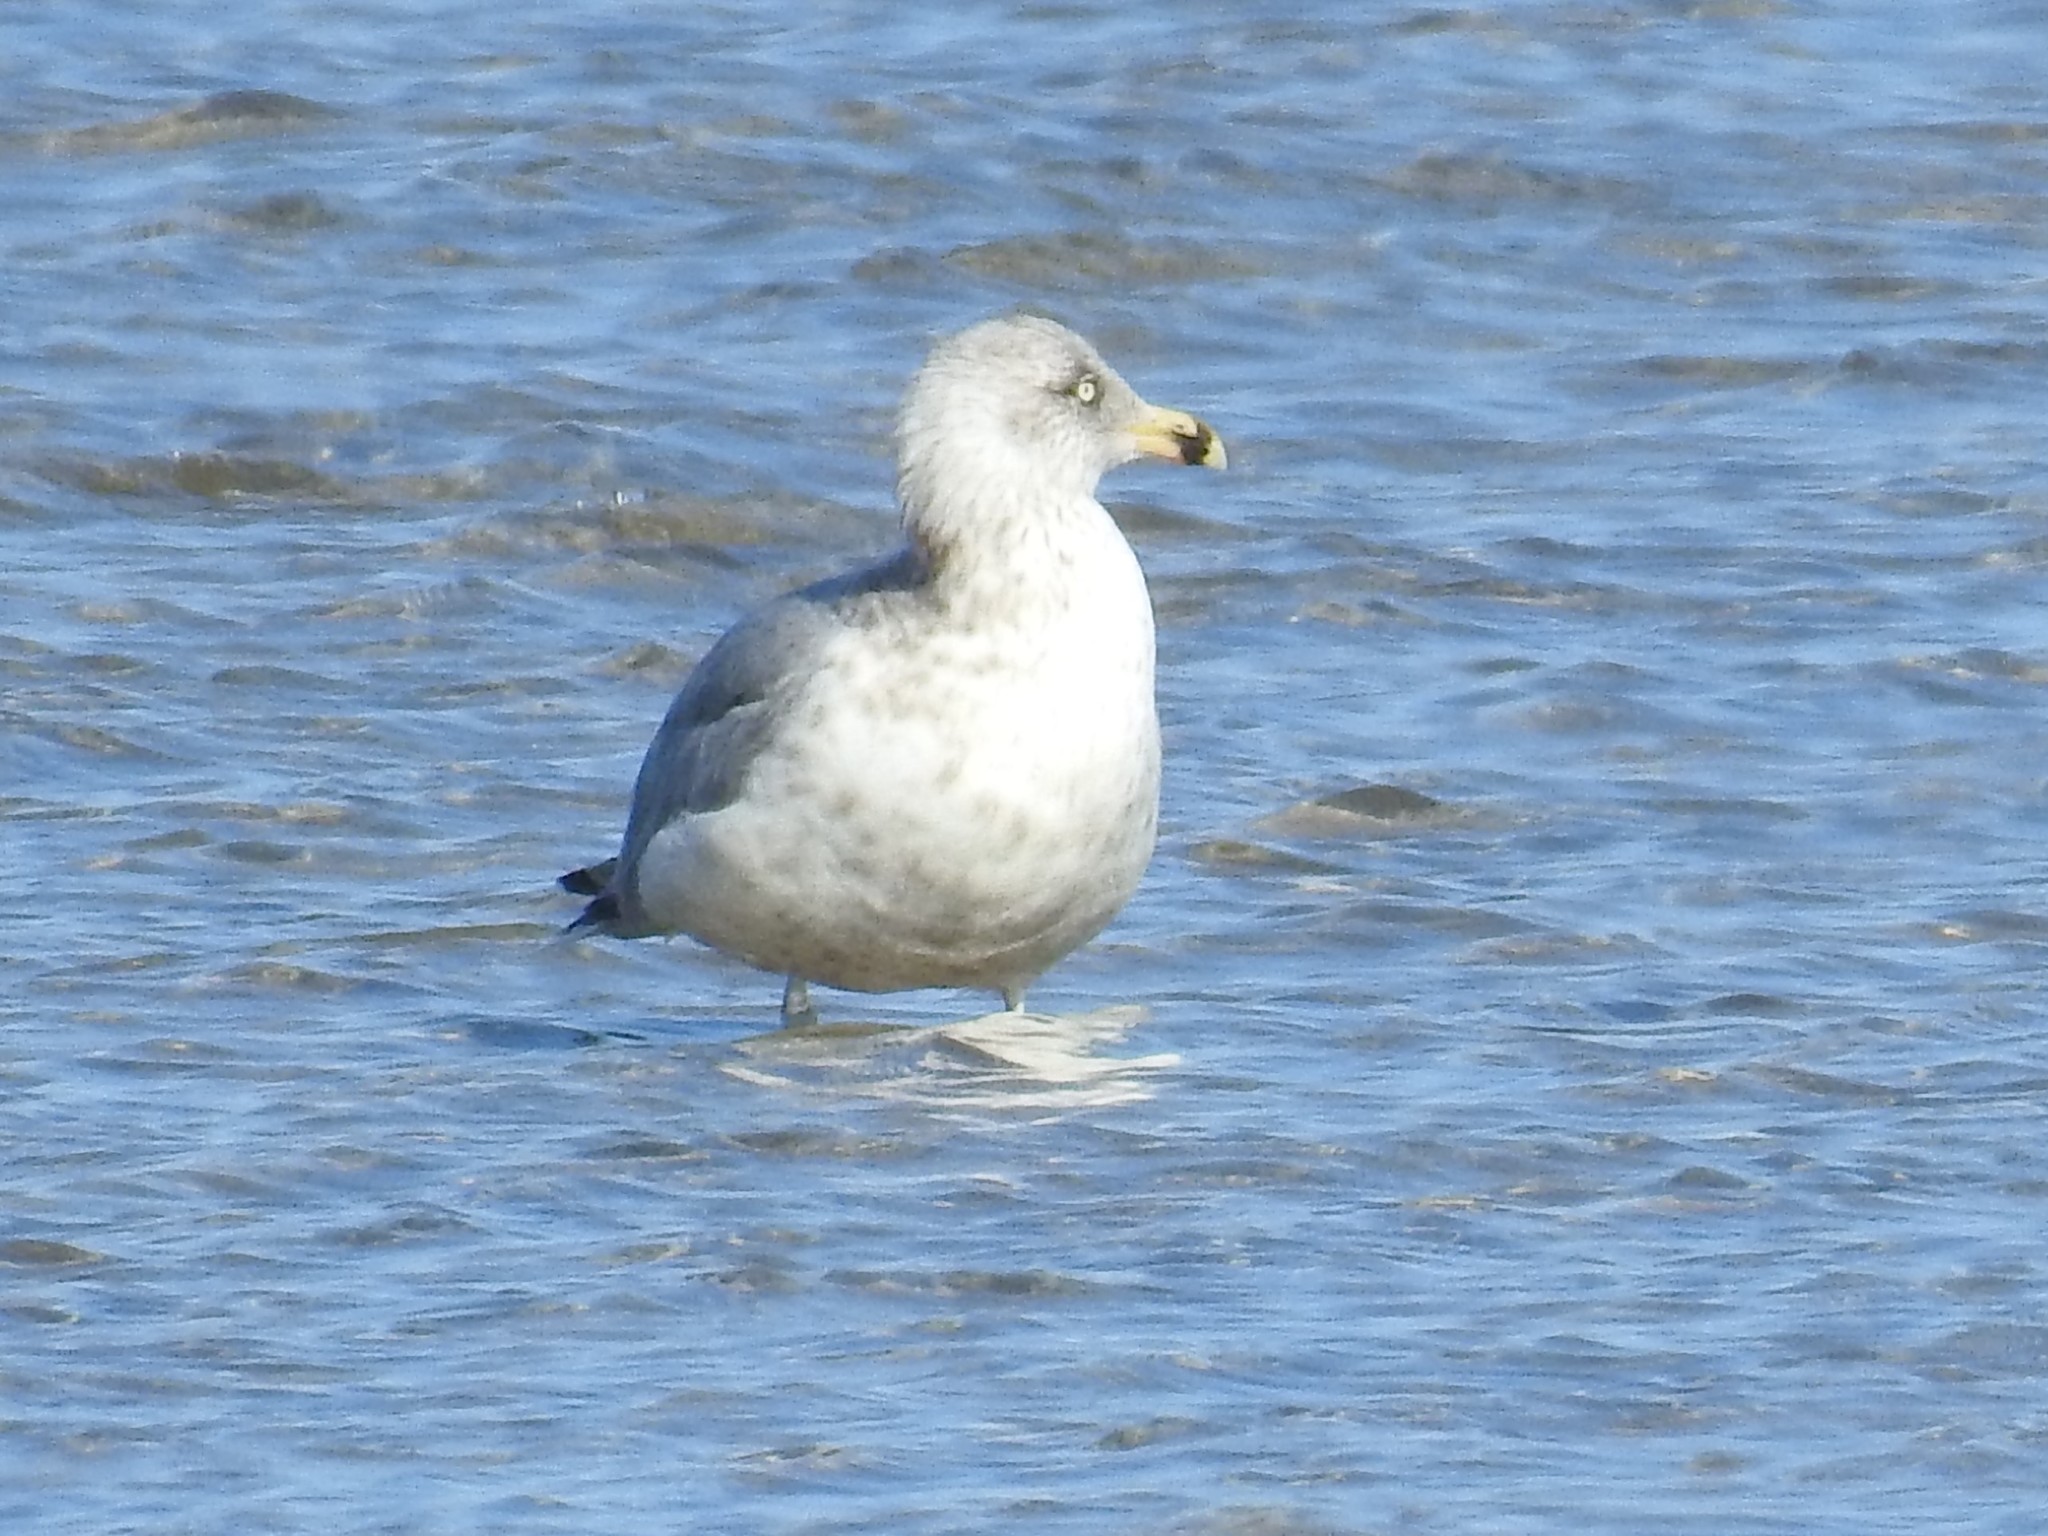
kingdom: Animalia
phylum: Chordata
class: Aves
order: Charadriiformes
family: Laridae
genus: Larus
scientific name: Larus delawarensis
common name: Ring-billed gull
